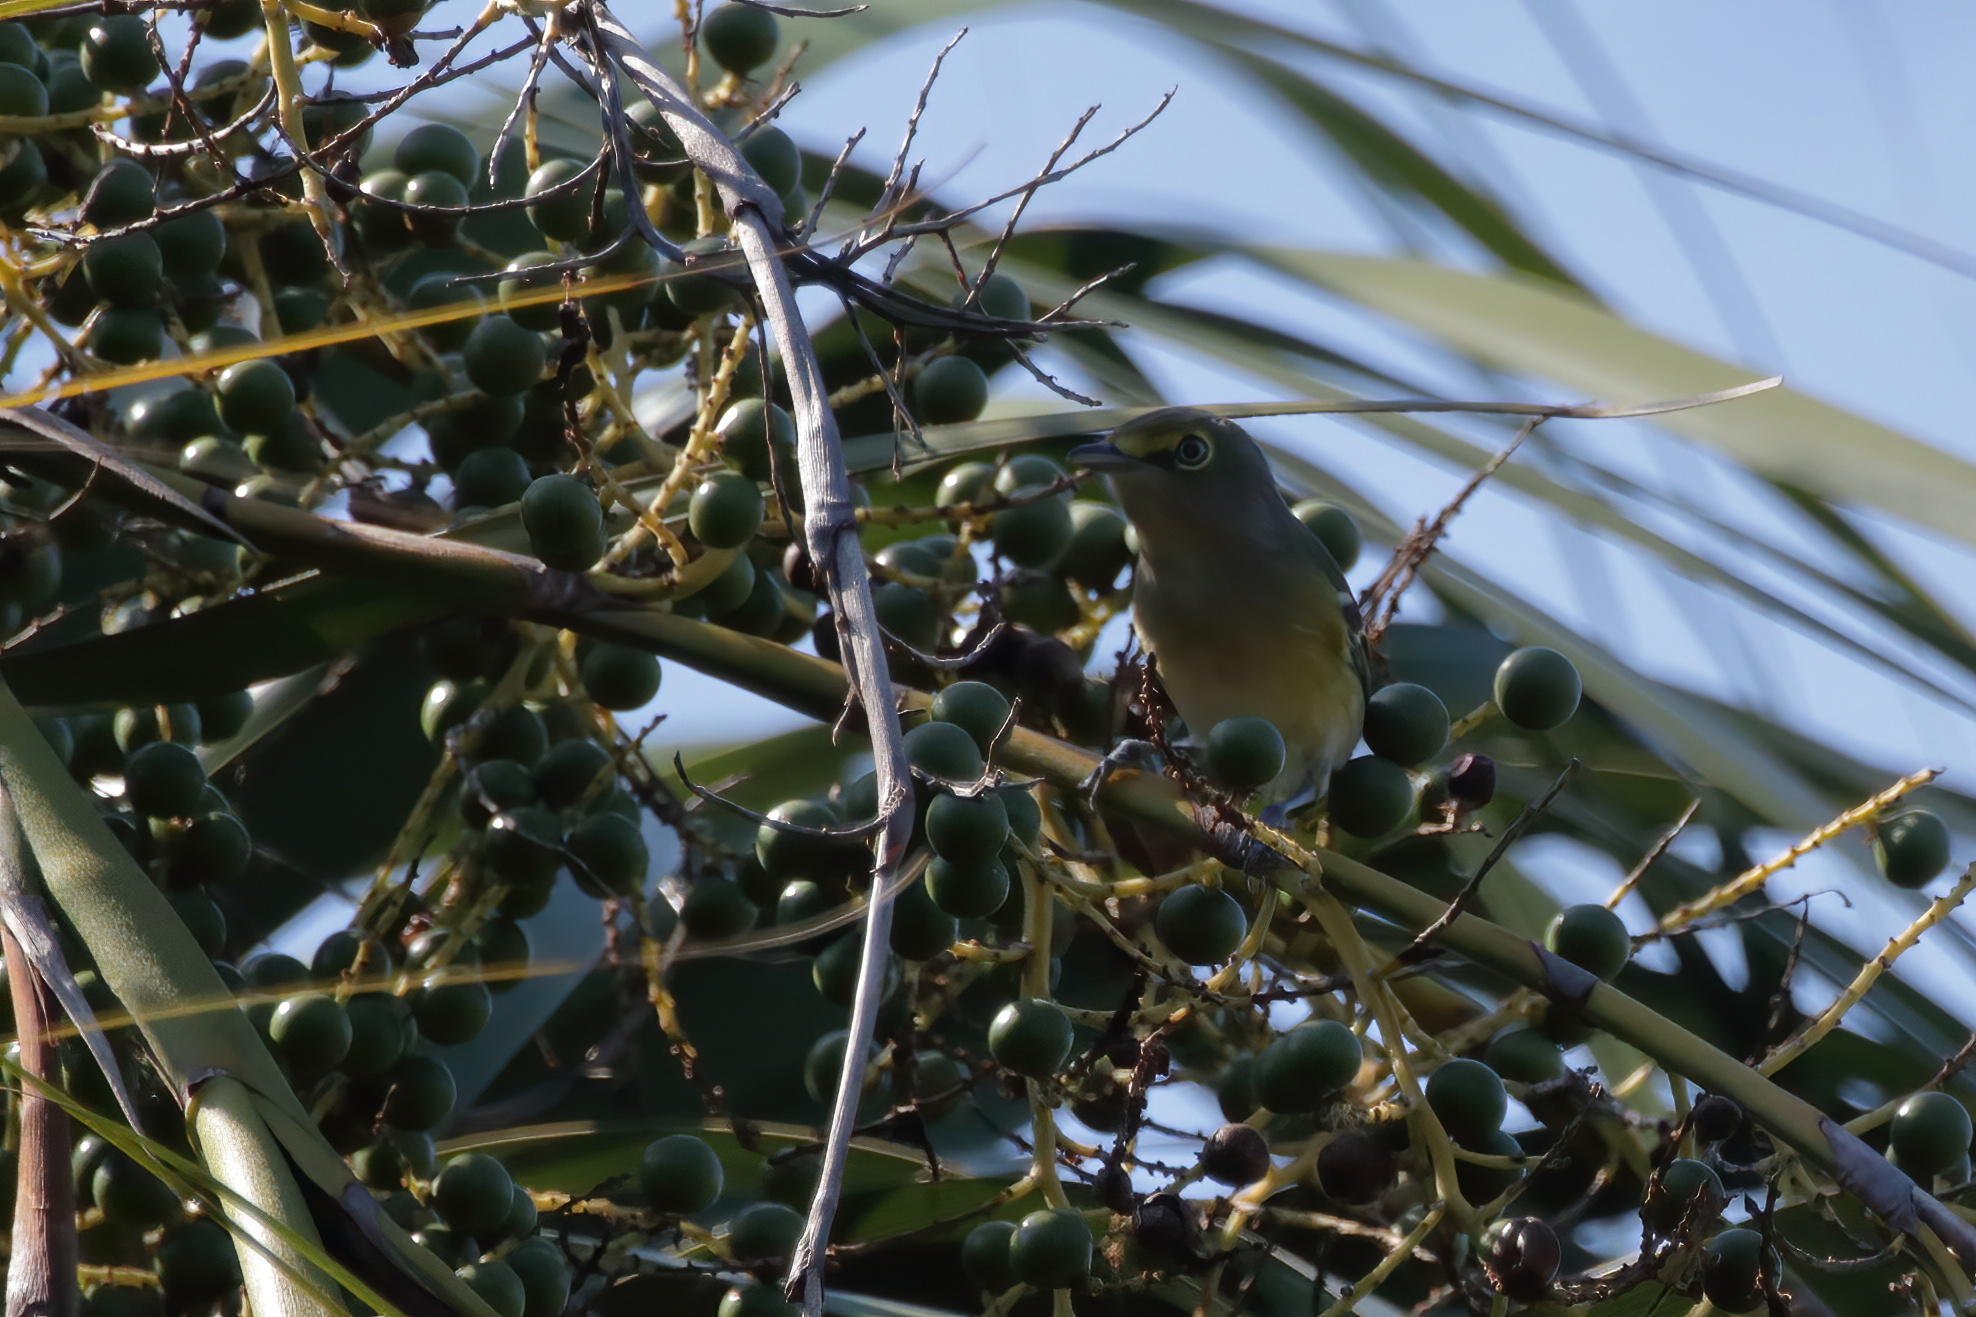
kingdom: Animalia
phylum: Chordata
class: Aves
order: Passeriformes
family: Vireonidae
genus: Vireo
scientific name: Vireo griseus
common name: White-eyed vireo
